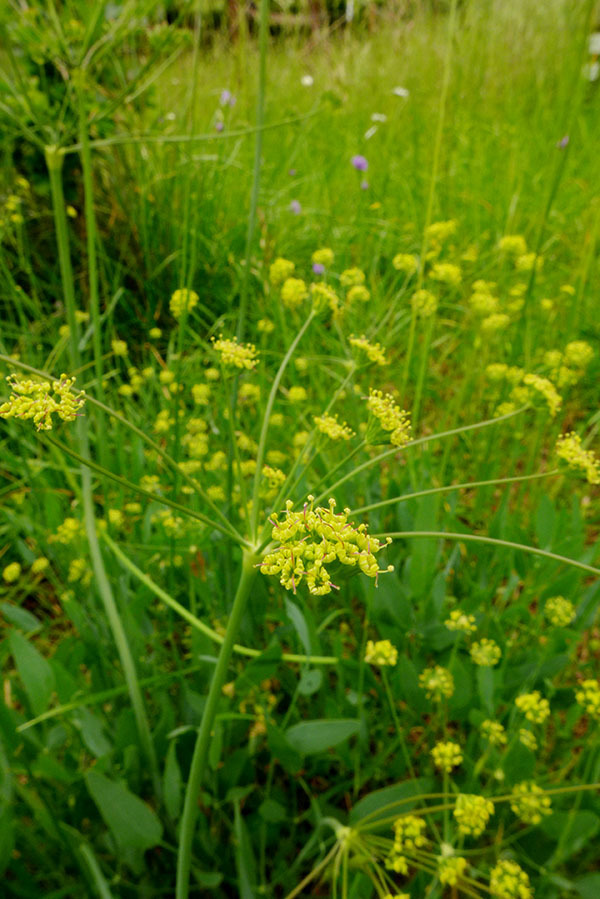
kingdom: Plantae
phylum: Tracheophyta
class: Magnoliopsida
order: Apiales
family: Apiaceae
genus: Lomatium
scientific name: Lomatium nudicaule
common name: Pestle lomatium
